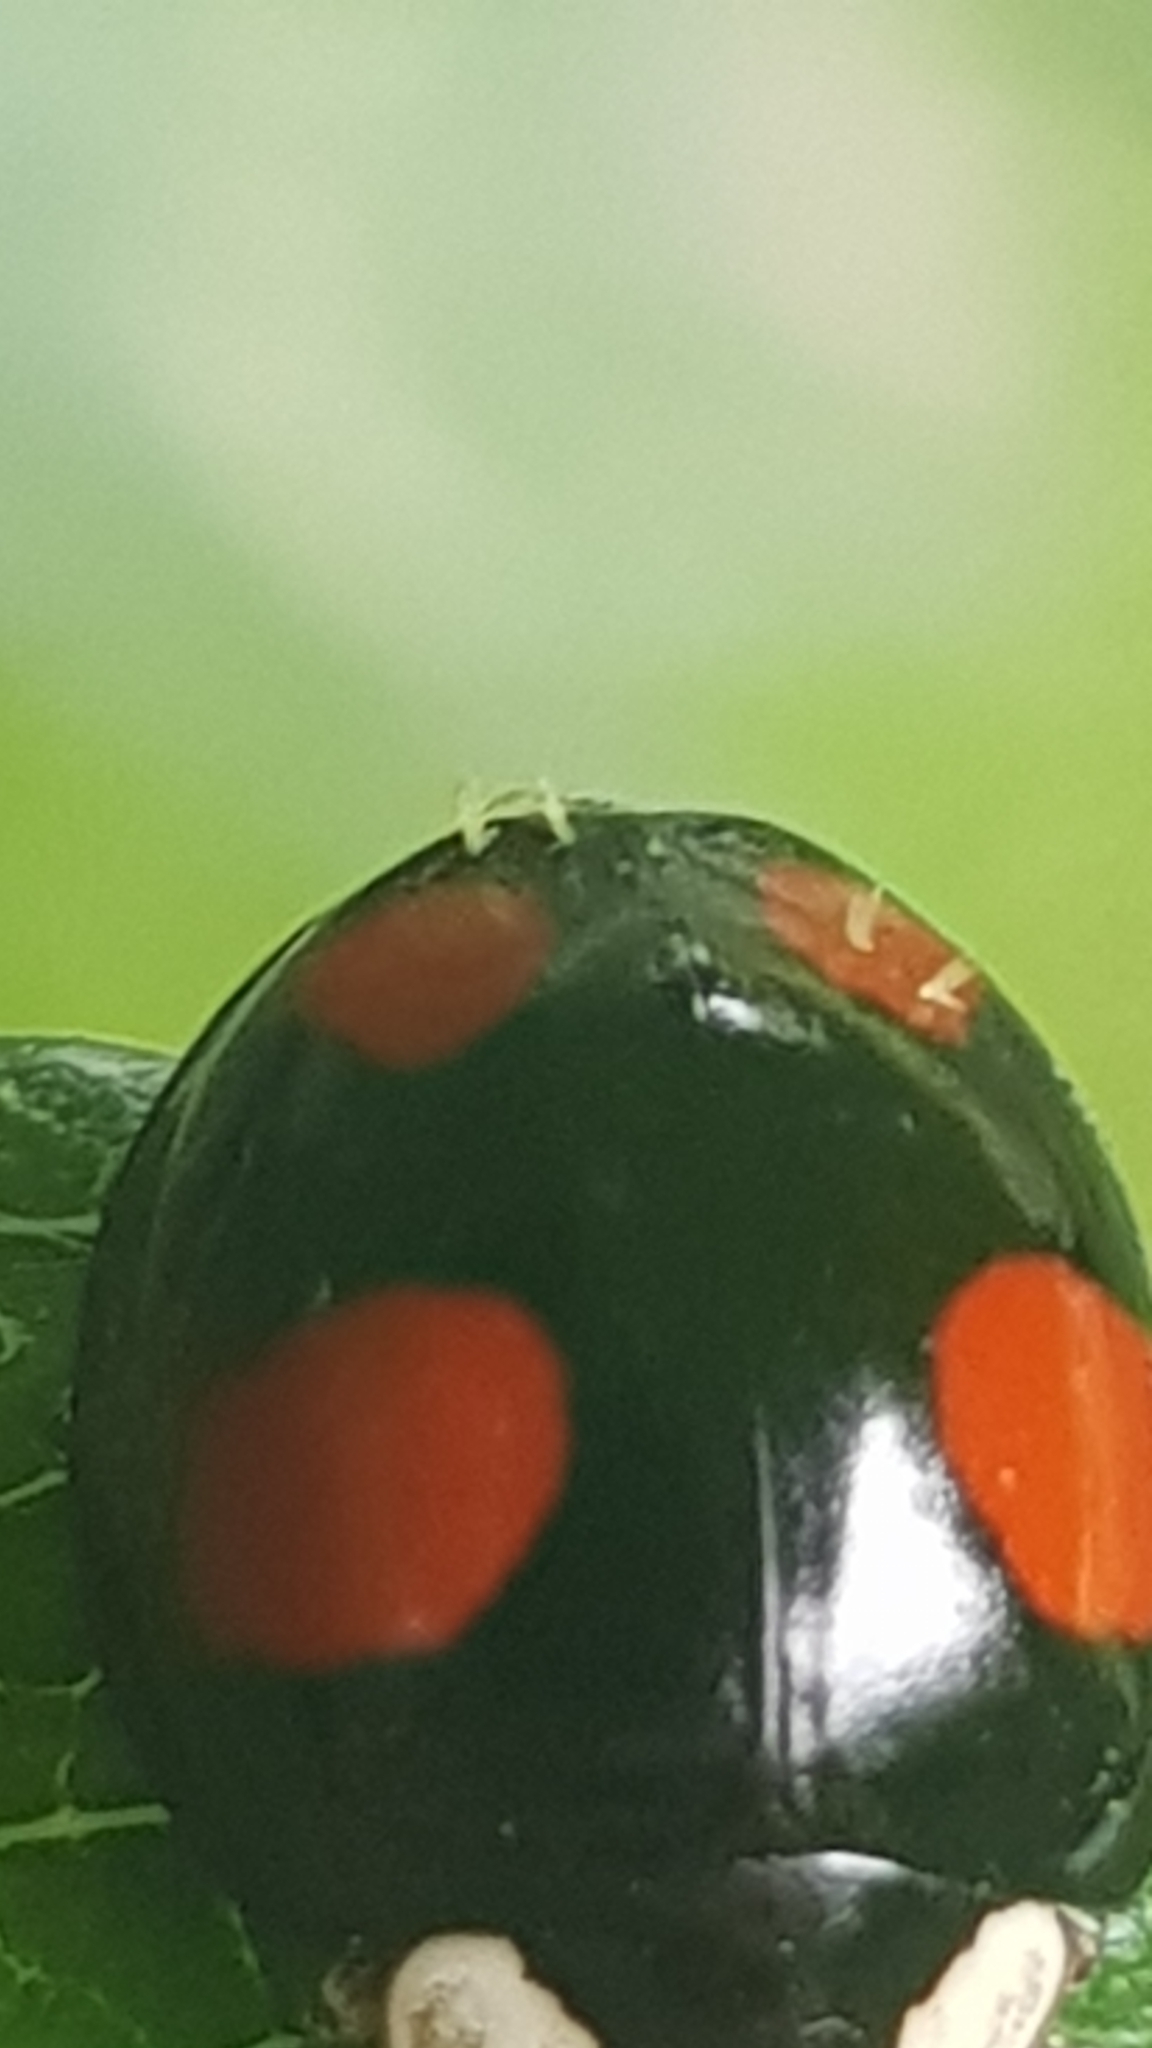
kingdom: Fungi
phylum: Ascomycota
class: Laboulbeniomycetes
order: Laboulbeniales
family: Laboulbeniaceae
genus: Hesperomyces
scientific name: Hesperomyces harmoniae
